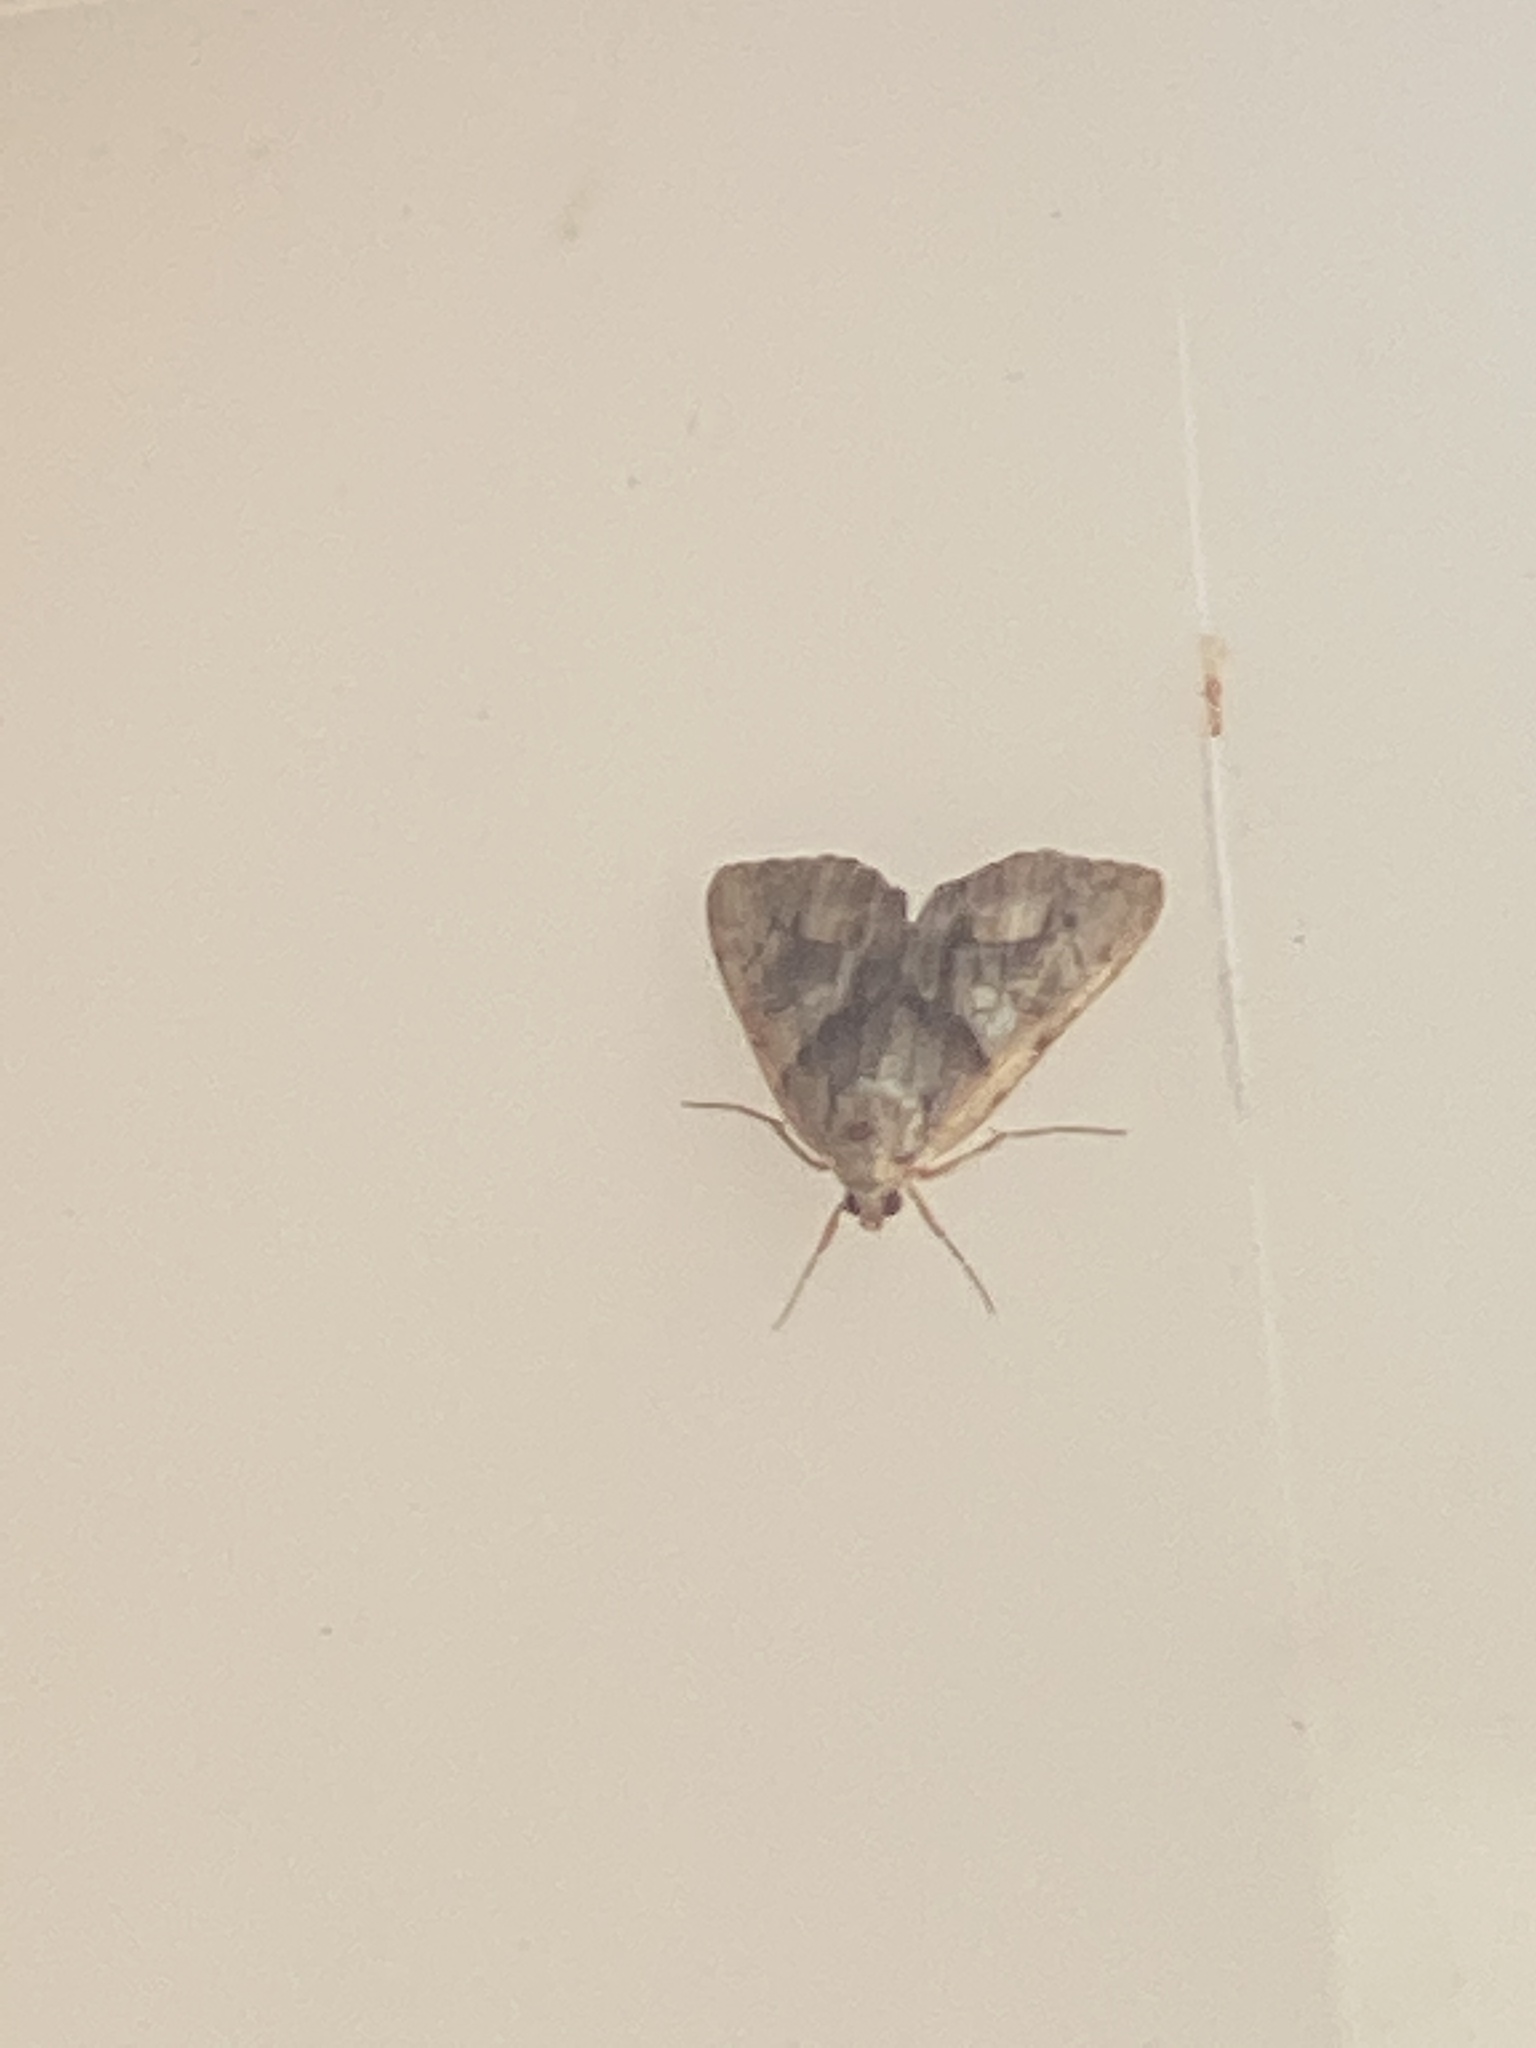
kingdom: Animalia
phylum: Arthropoda
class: Insecta
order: Lepidoptera
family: Erebidae
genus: Catocala
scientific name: Catocala blandula
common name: Charming underwing
